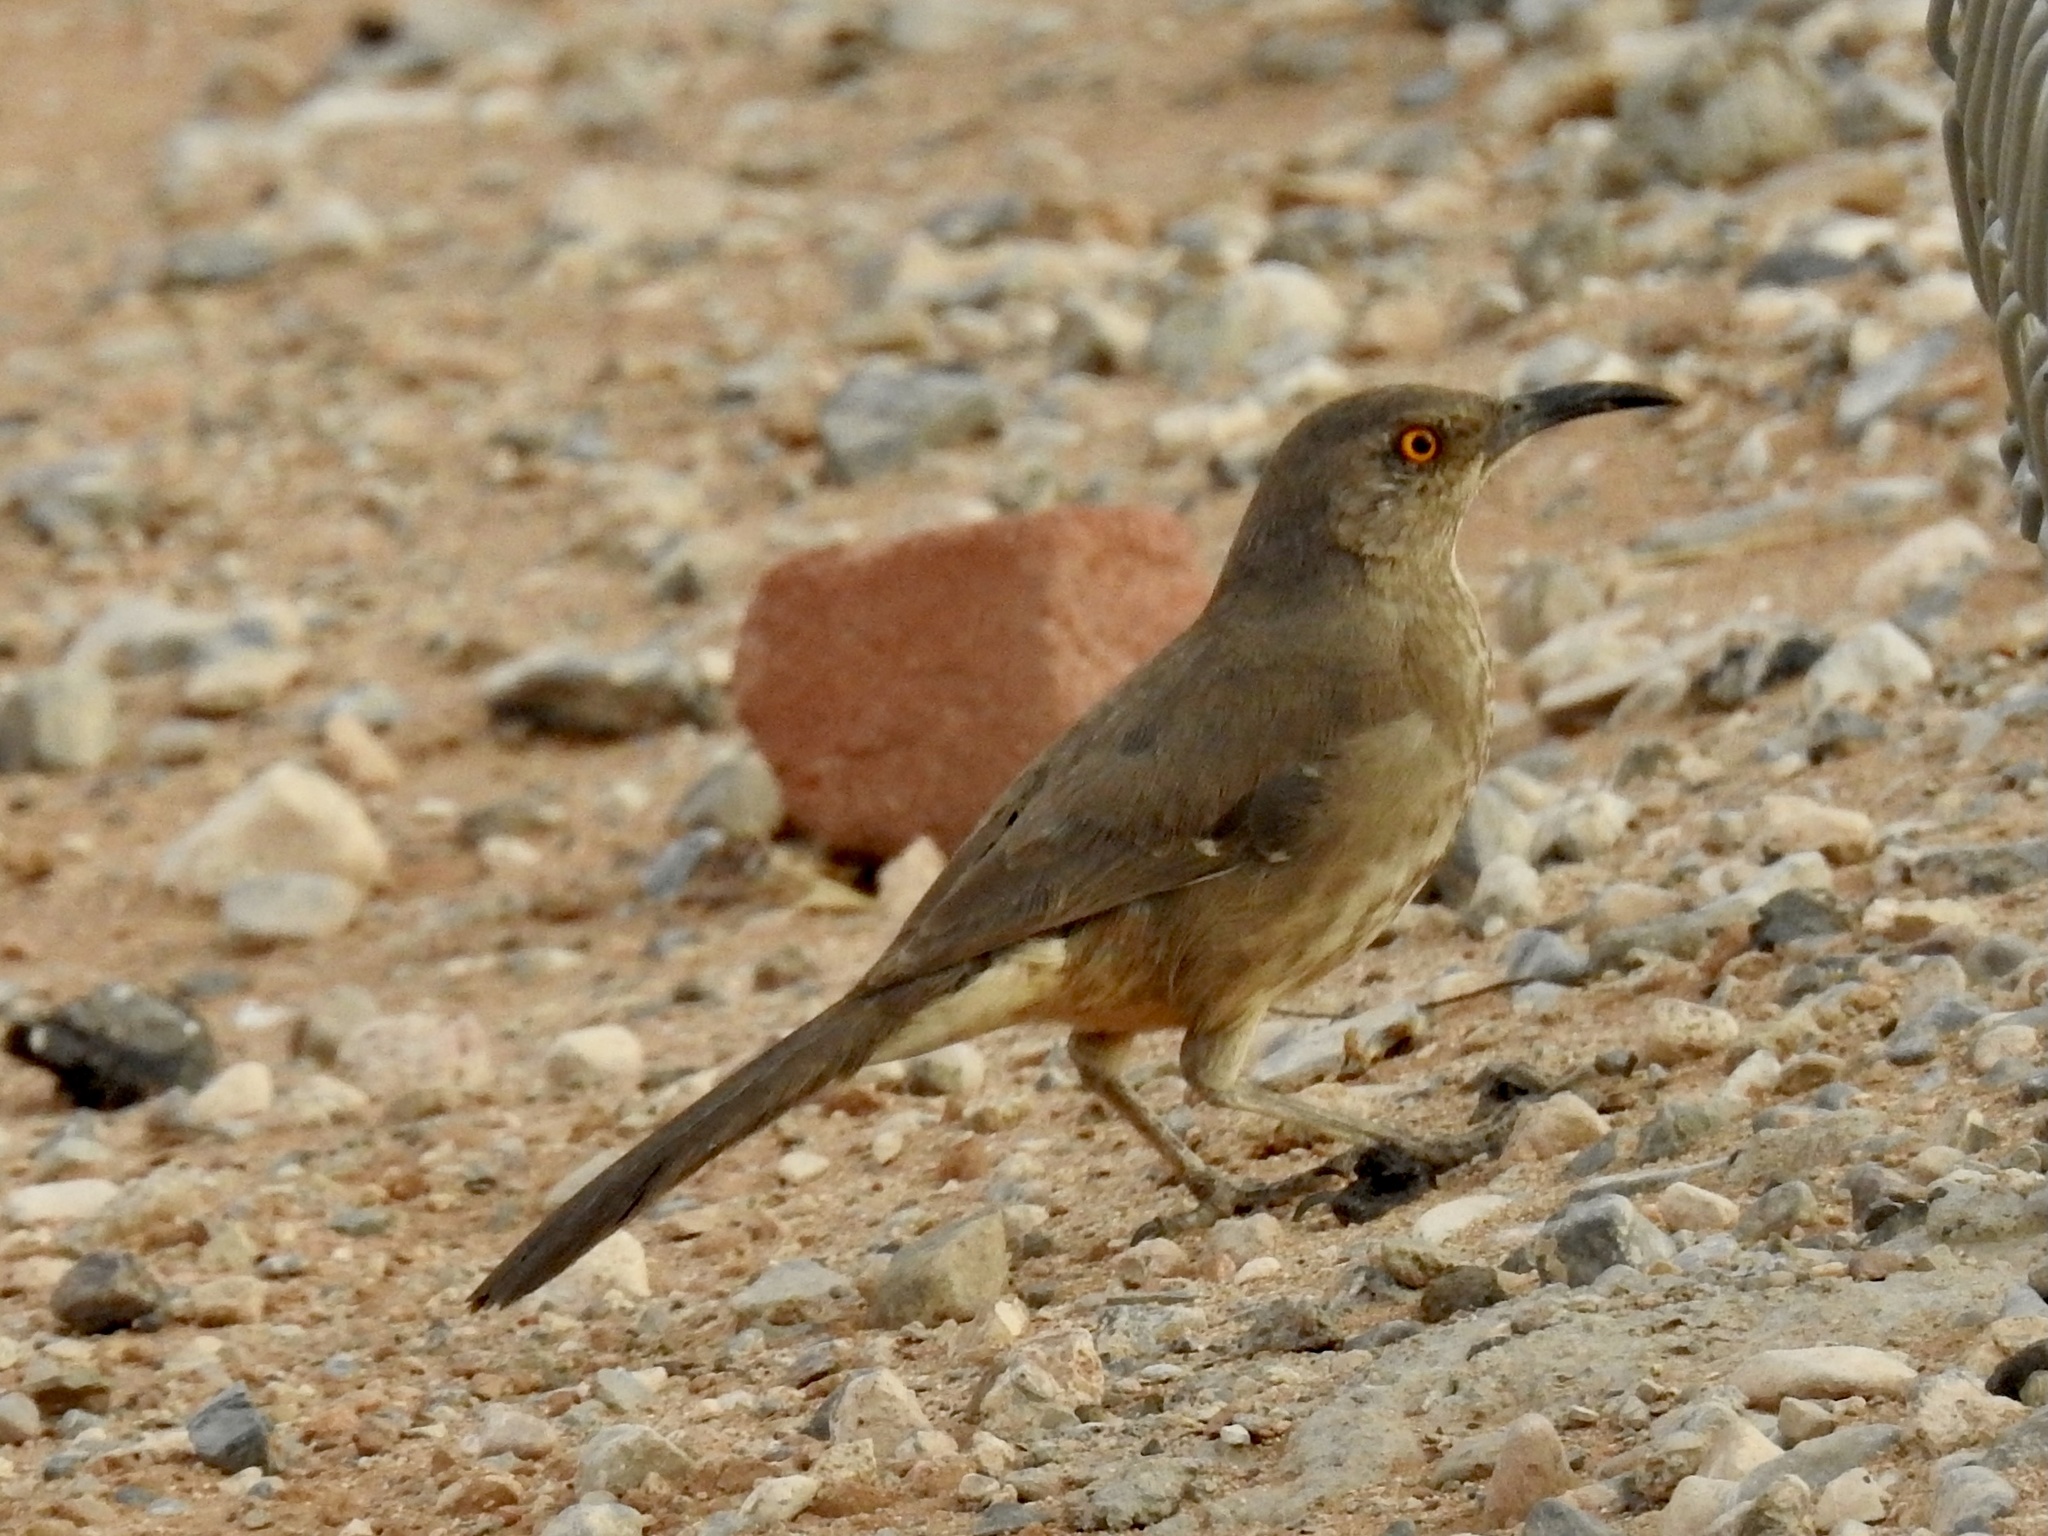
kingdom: Animalia
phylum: Chordata
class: Aves
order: Passeriformes
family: Mimidae
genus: Toxostoma
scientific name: Toxostoma curvirostre
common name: Curve-billed thrasher
